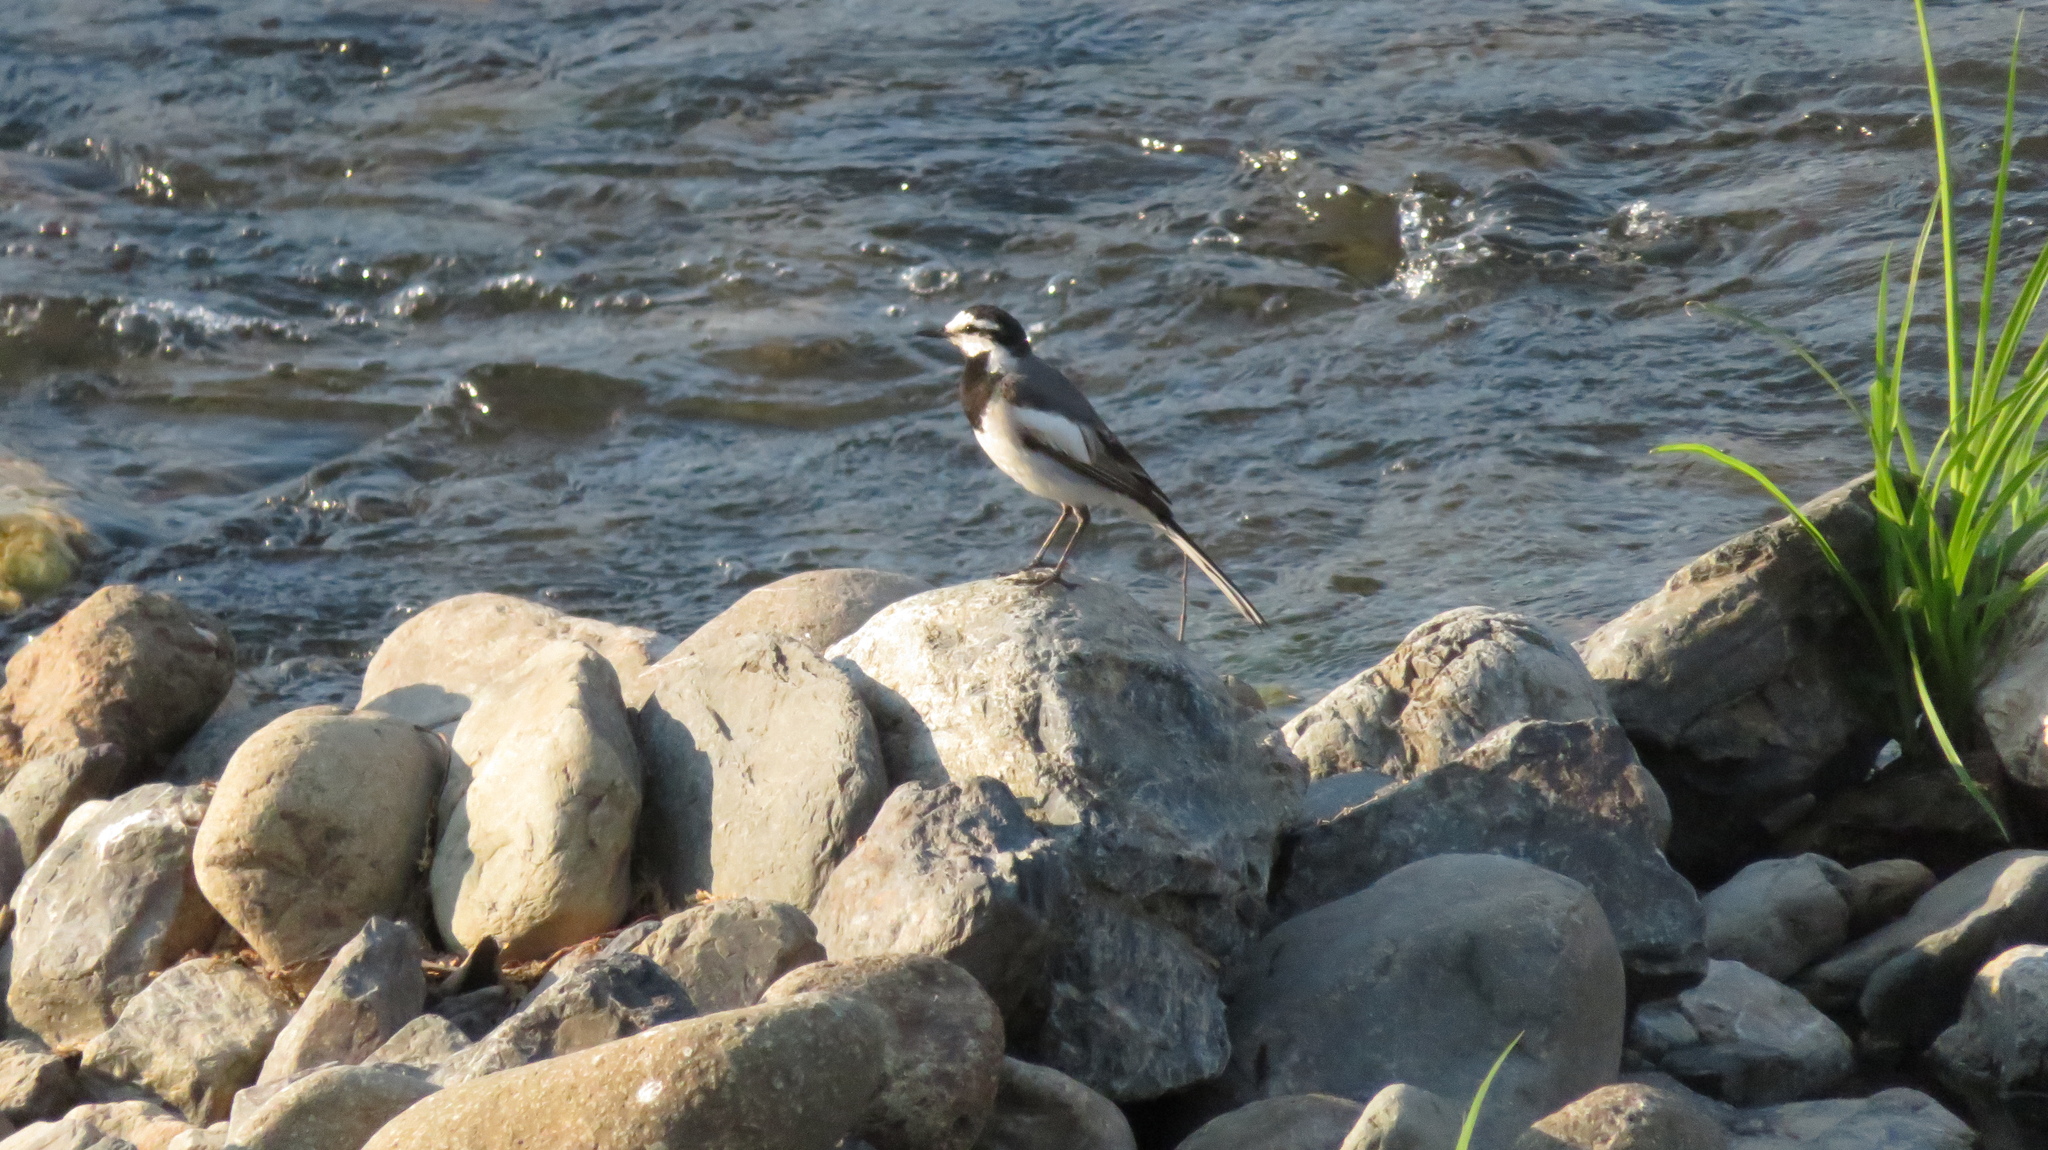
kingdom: Animalia
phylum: Chordata
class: Aves
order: Passeriformes
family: Motacillidae
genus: Motacilla
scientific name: Motacilla alba
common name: White wagtail
